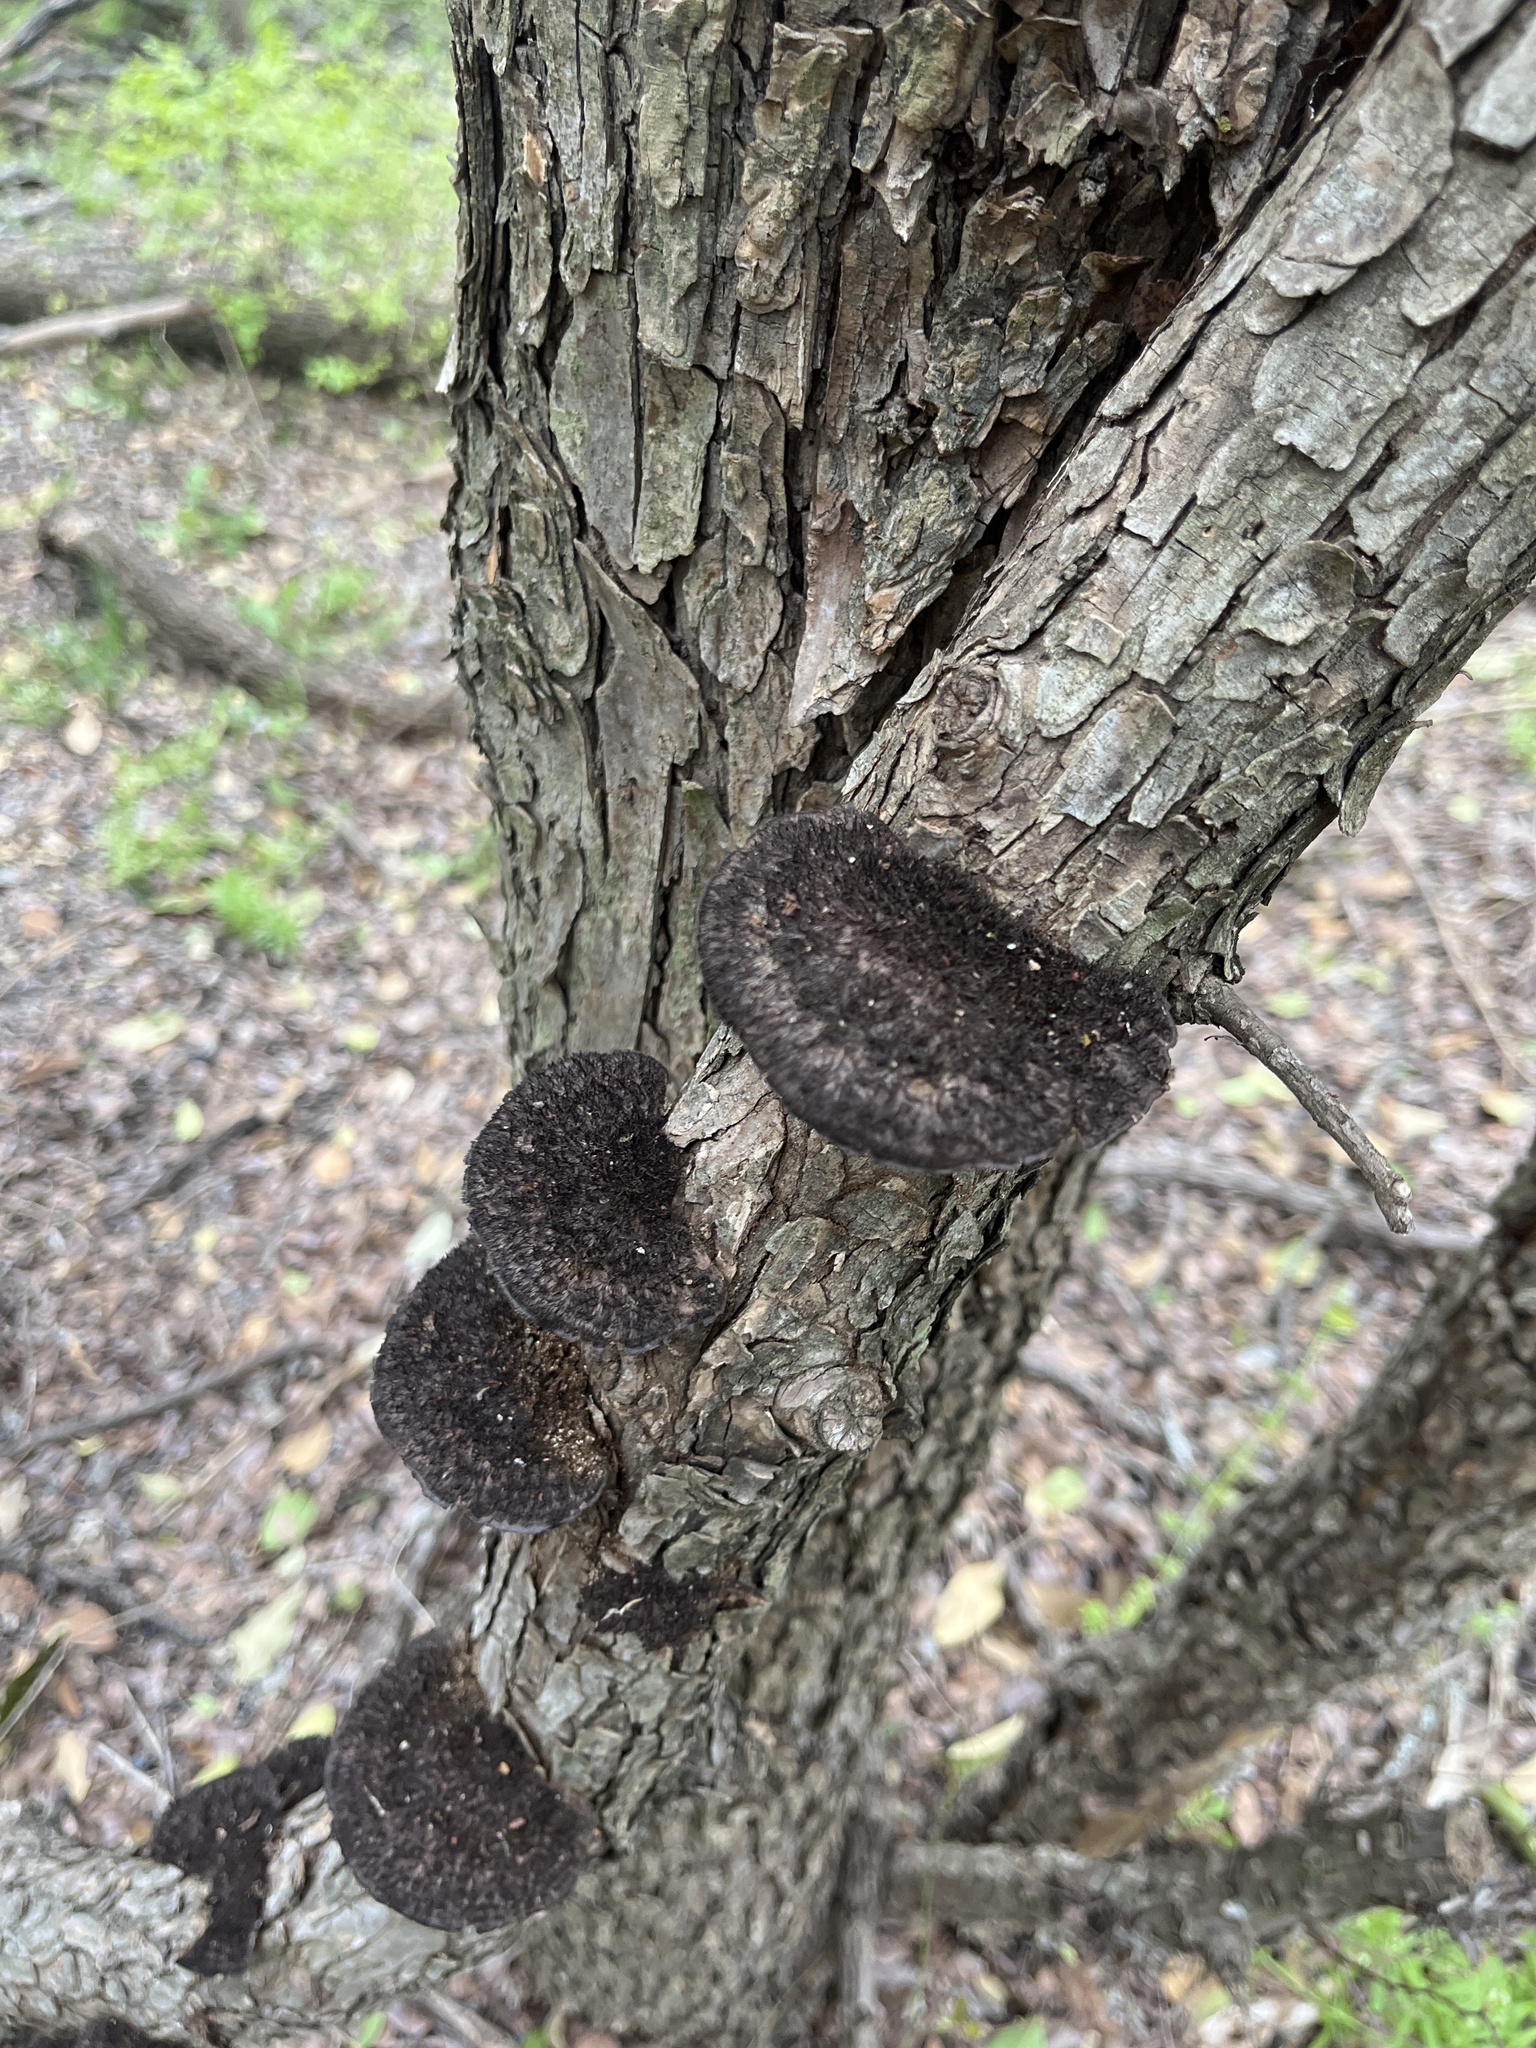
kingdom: Fungi
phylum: Basidiomycota
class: Agaricomycetes
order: Polyporales
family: Cerrenaceae
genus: Cerrena
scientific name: Cerrena hydnoides
